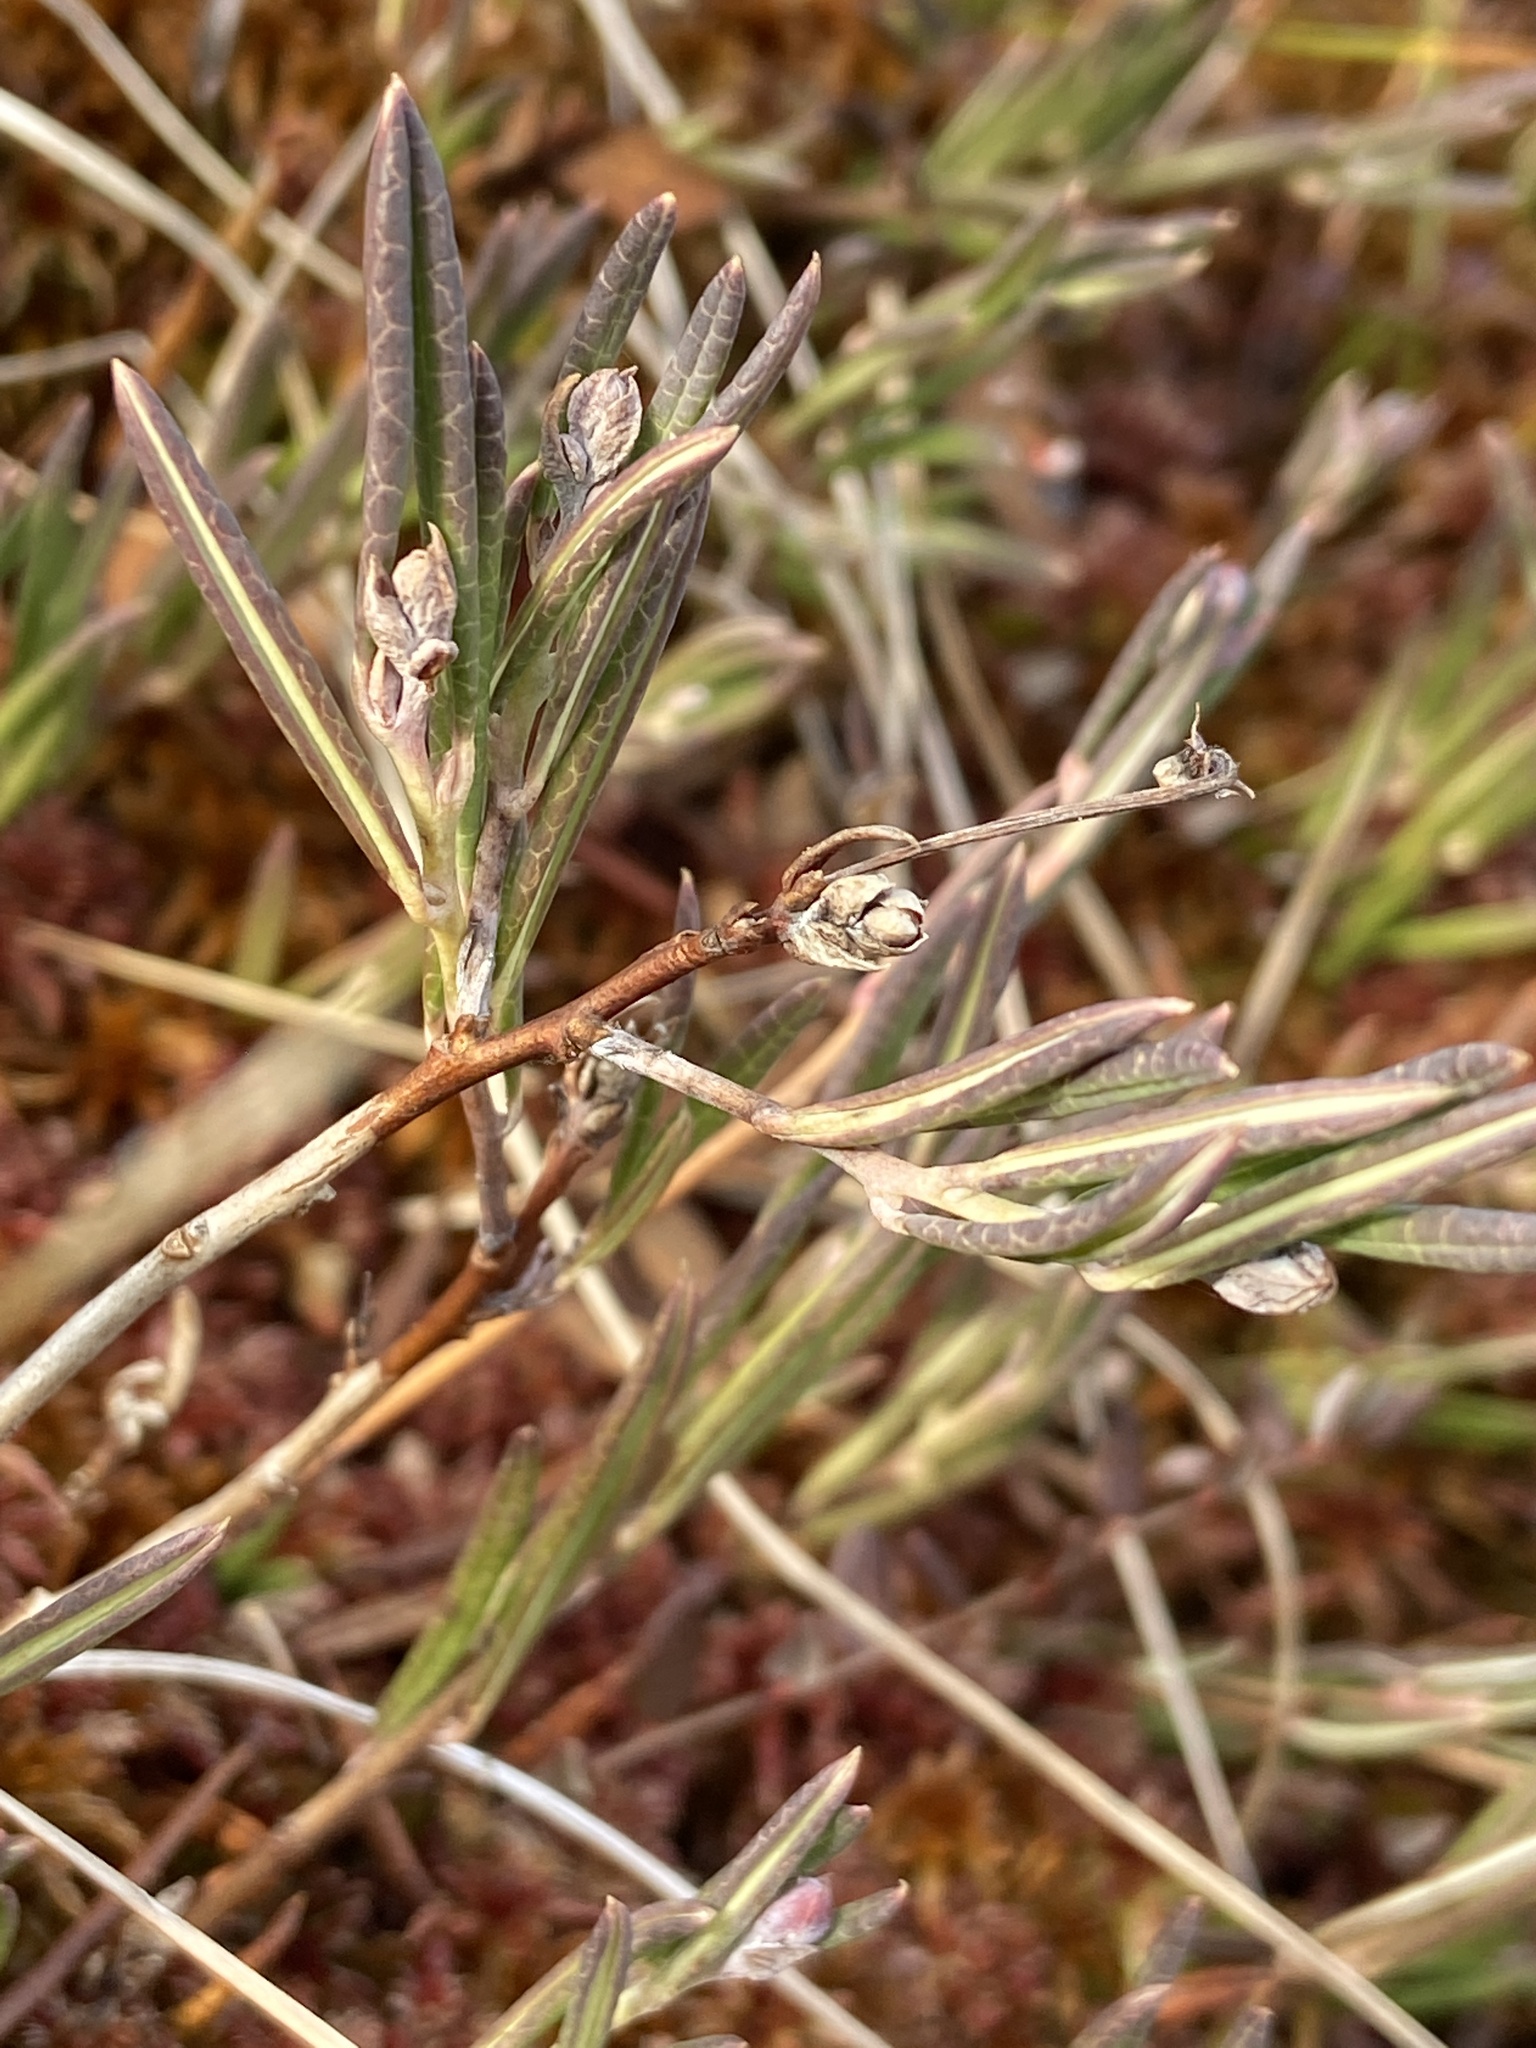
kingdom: Plantae
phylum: Tracheophyta
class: Magnoliopsida
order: Ericales
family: Ericaceae
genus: Andromeda
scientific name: Andromeda polifolia
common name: Bog-rosemary
